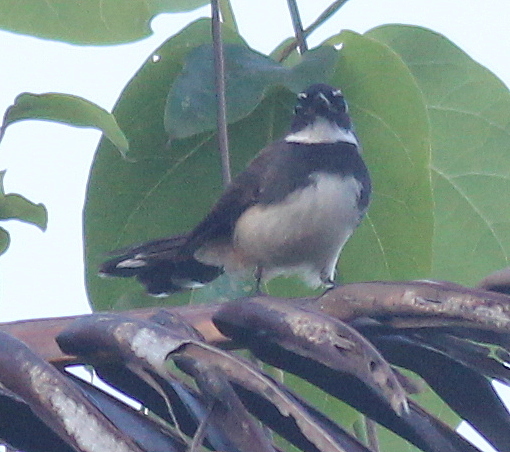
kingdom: Animalia
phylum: Chordata
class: Aves
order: Passeriformes
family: Rhipiduridae
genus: Rhipidura
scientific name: Rhipidura javanica
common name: Pied fantail
